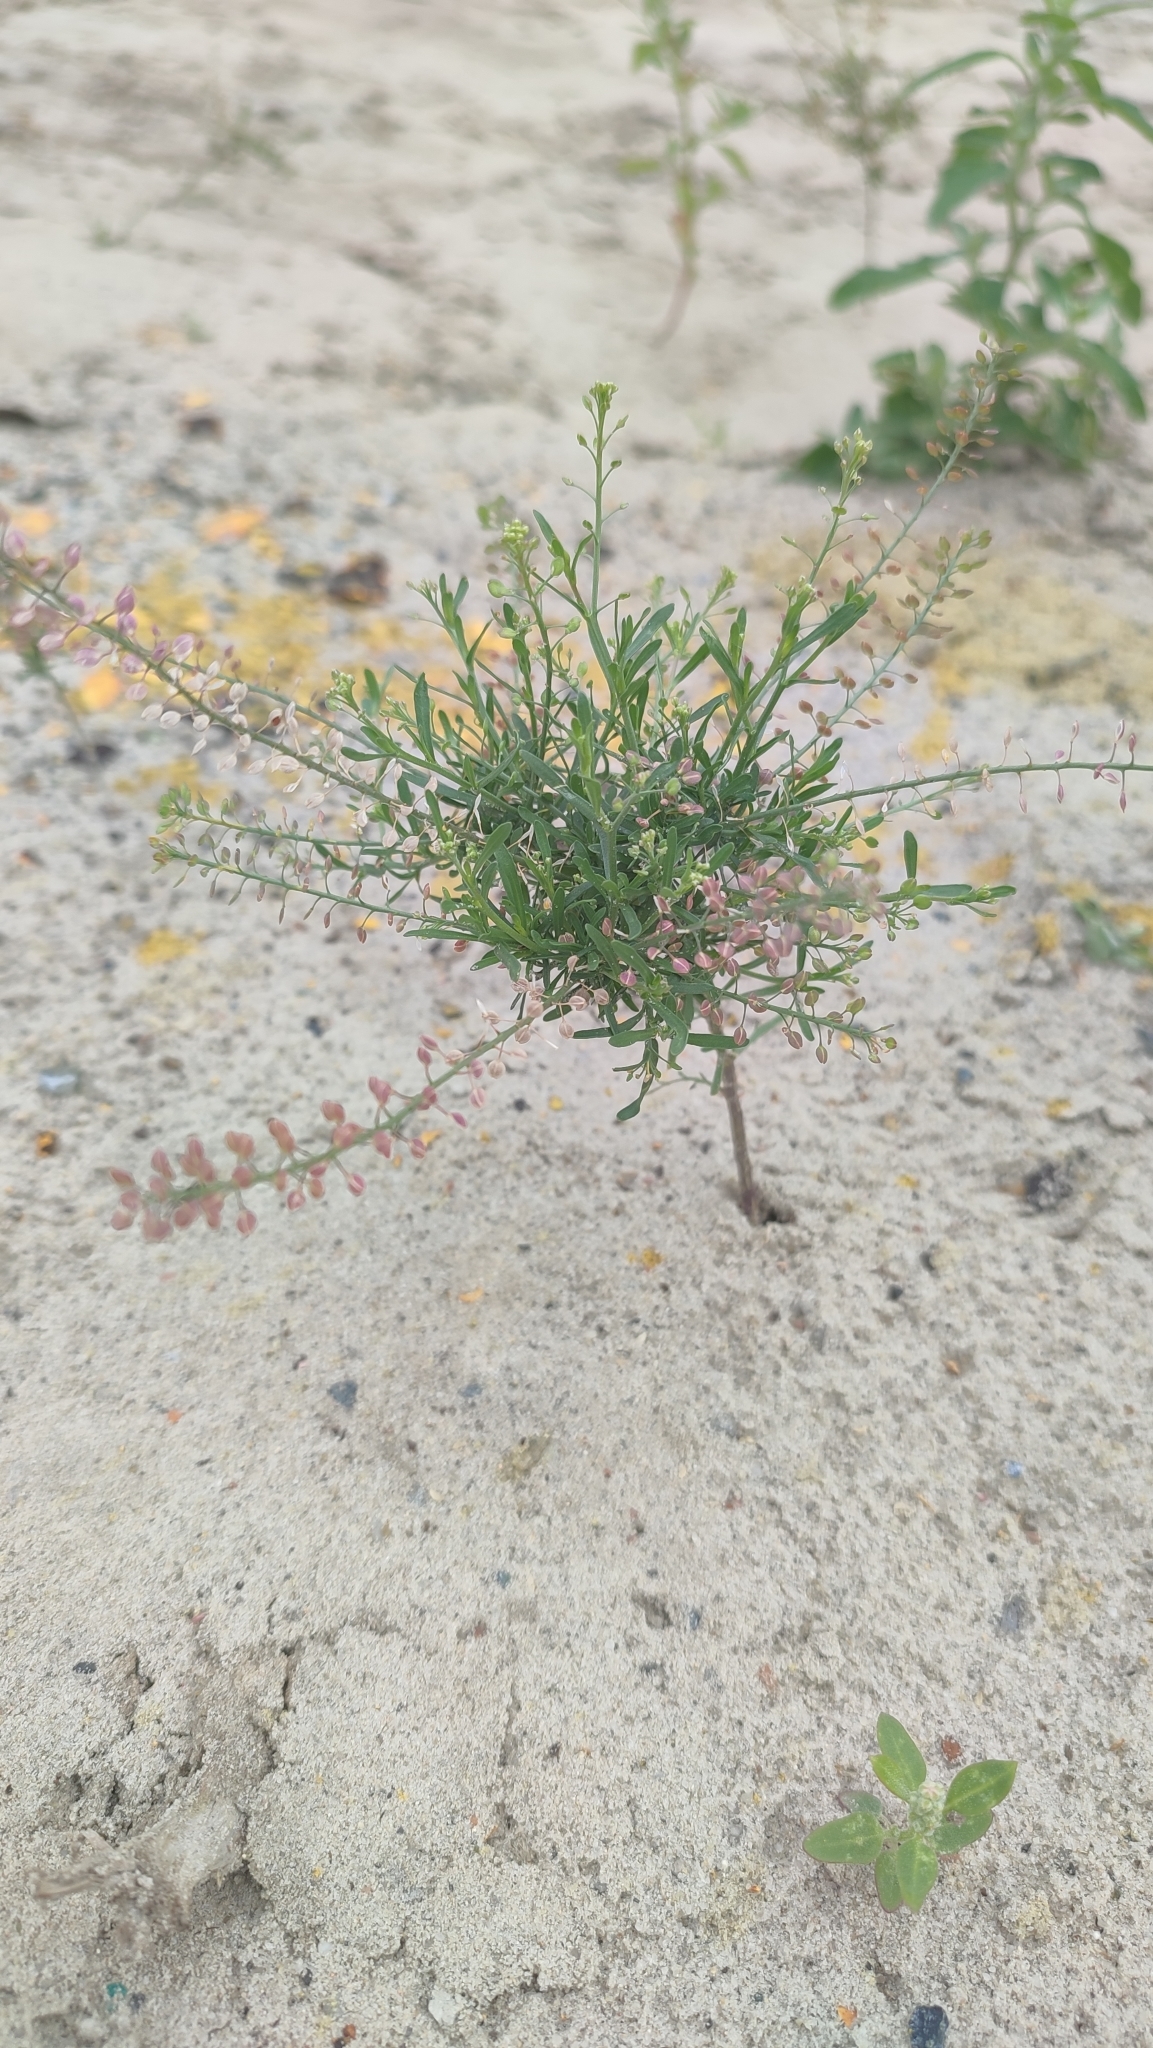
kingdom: Plantae
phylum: Tracheophyta
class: Magnoliopsida
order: Brassicales
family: Brassicaceae
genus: Lepidium
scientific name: Lepidium ruderale
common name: Narrow-leaved pepperwort
